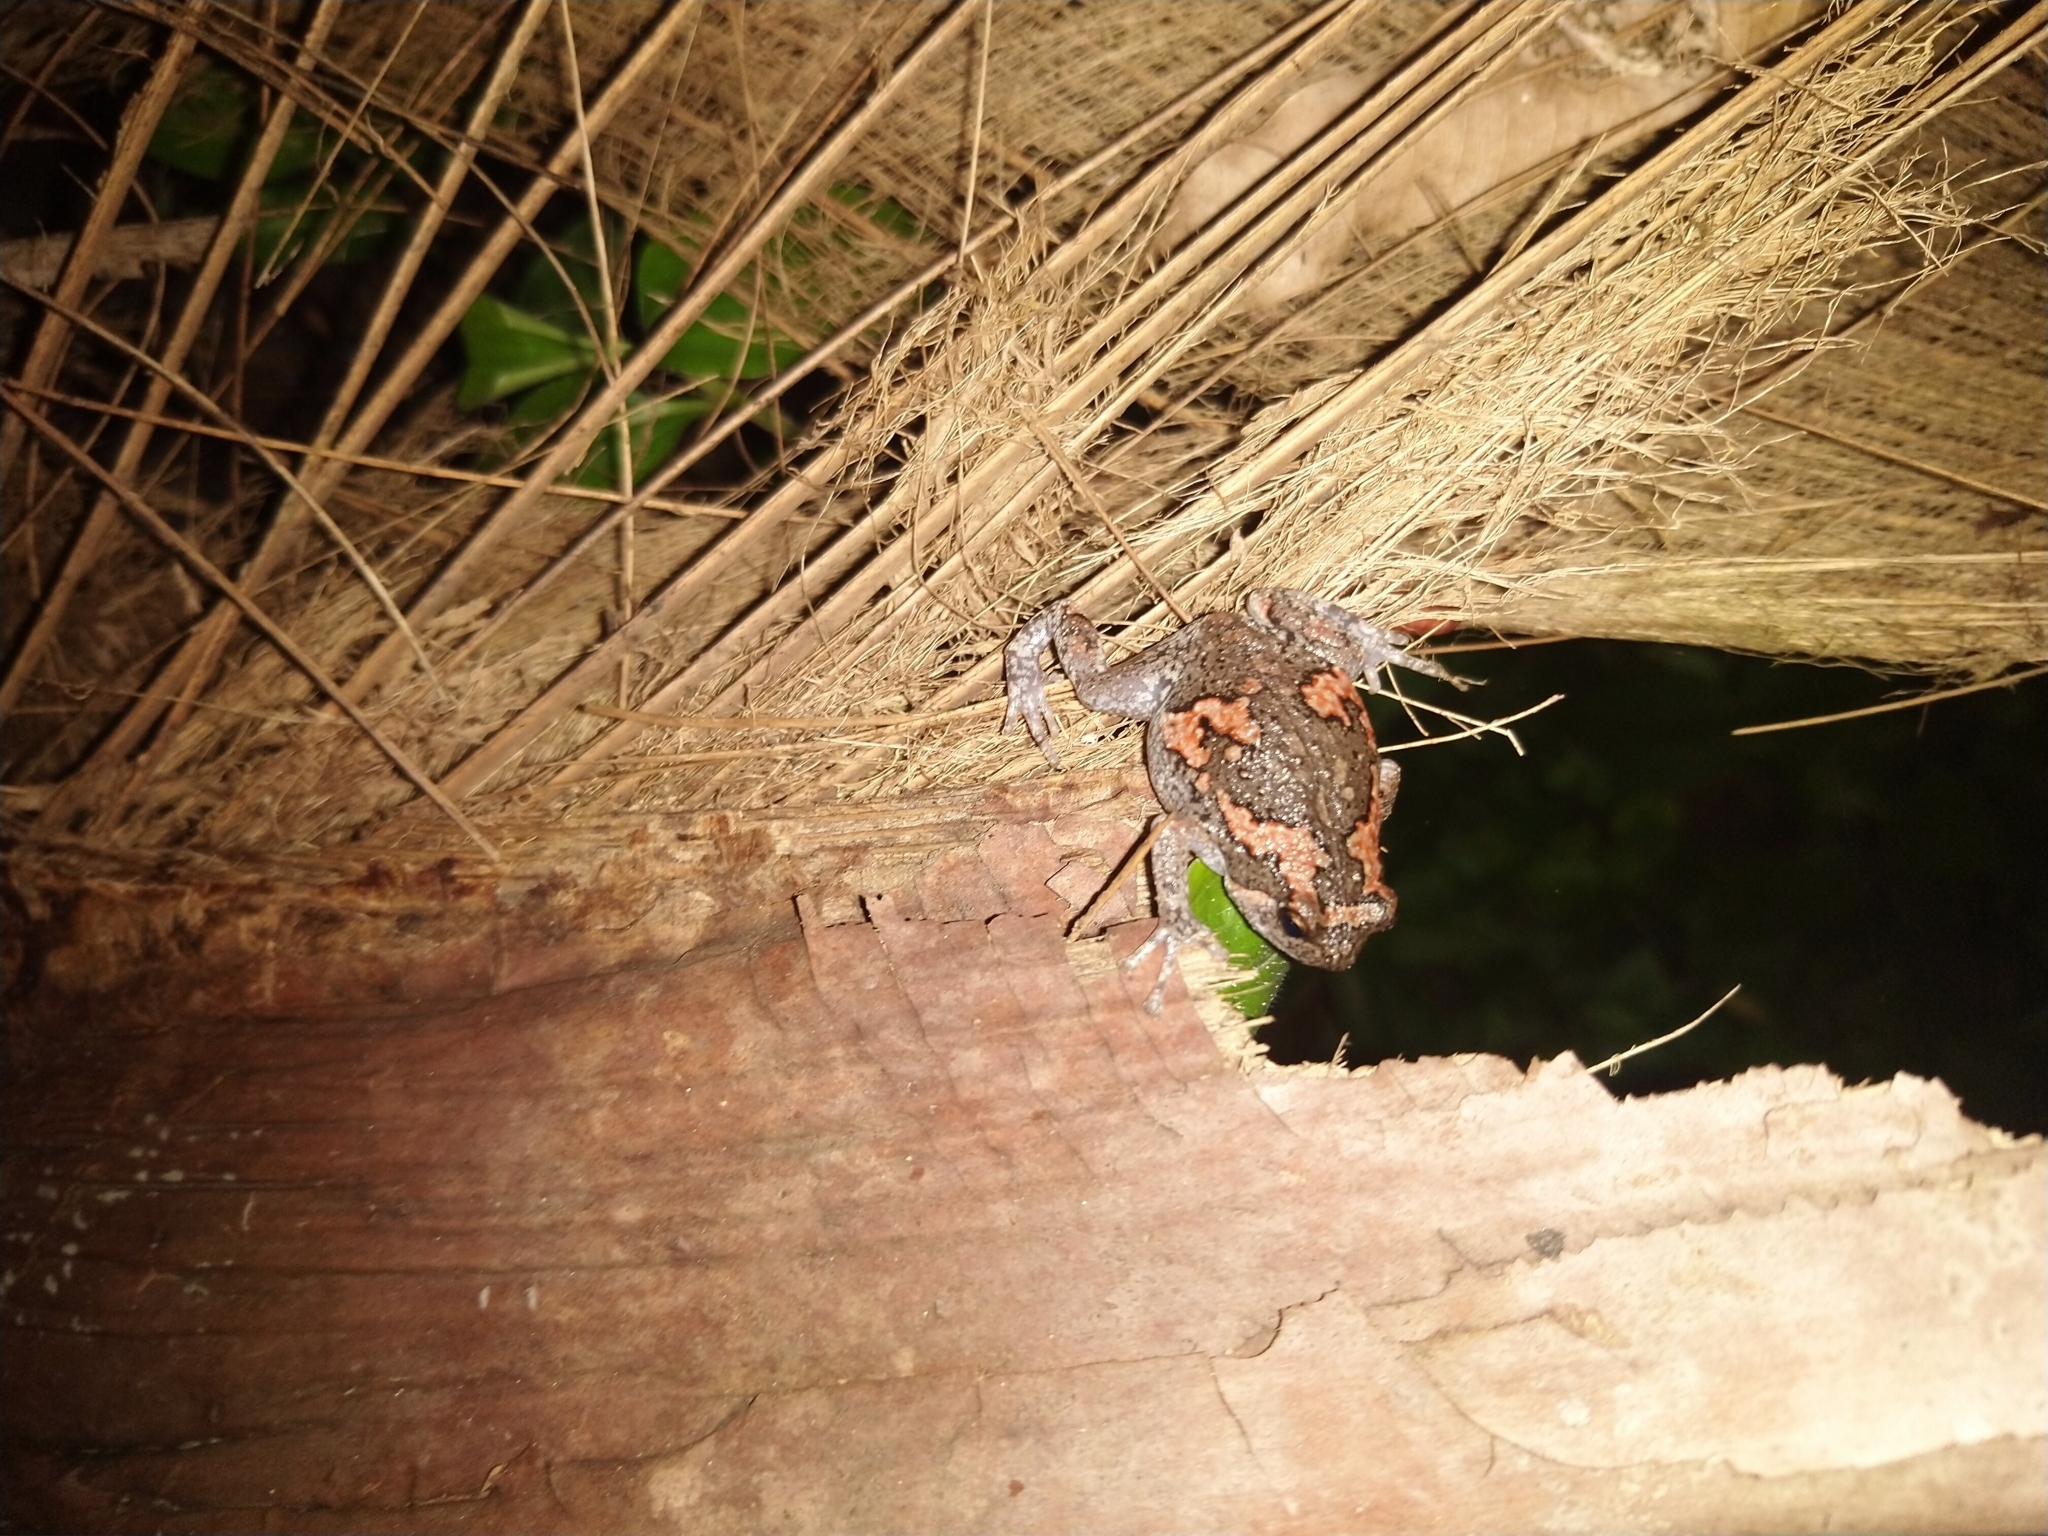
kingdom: Animalia
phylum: Chordata
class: Amphibia
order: Anura
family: Microhylidae
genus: Uperodon
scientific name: Uperodon taprobanicus
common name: Ceylon kaloula
